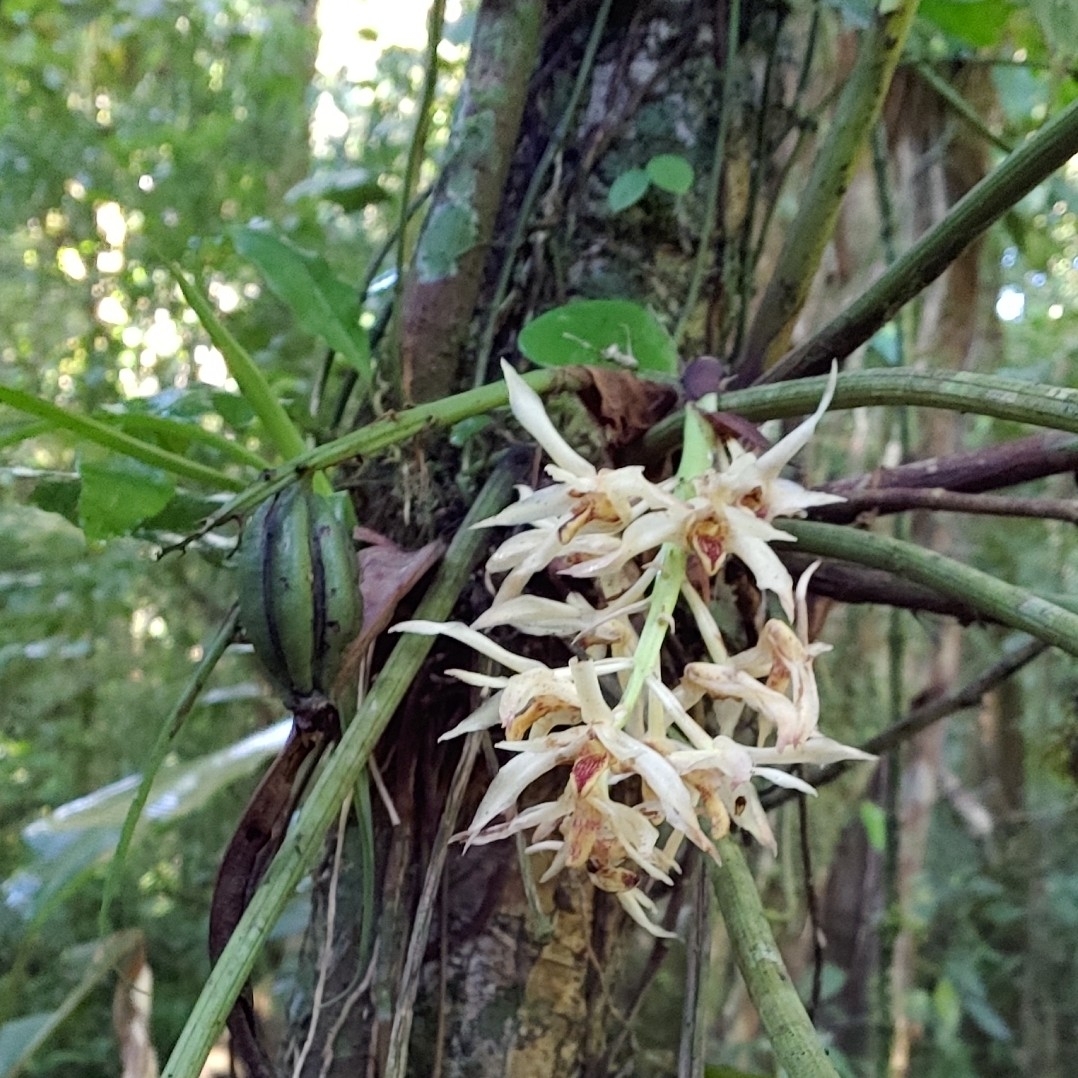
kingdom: Plantae
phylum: Tracheophyta
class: Liliopsida
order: Asparagales
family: Orchidaceae
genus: Xylobium
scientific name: Xylobium elongatum
